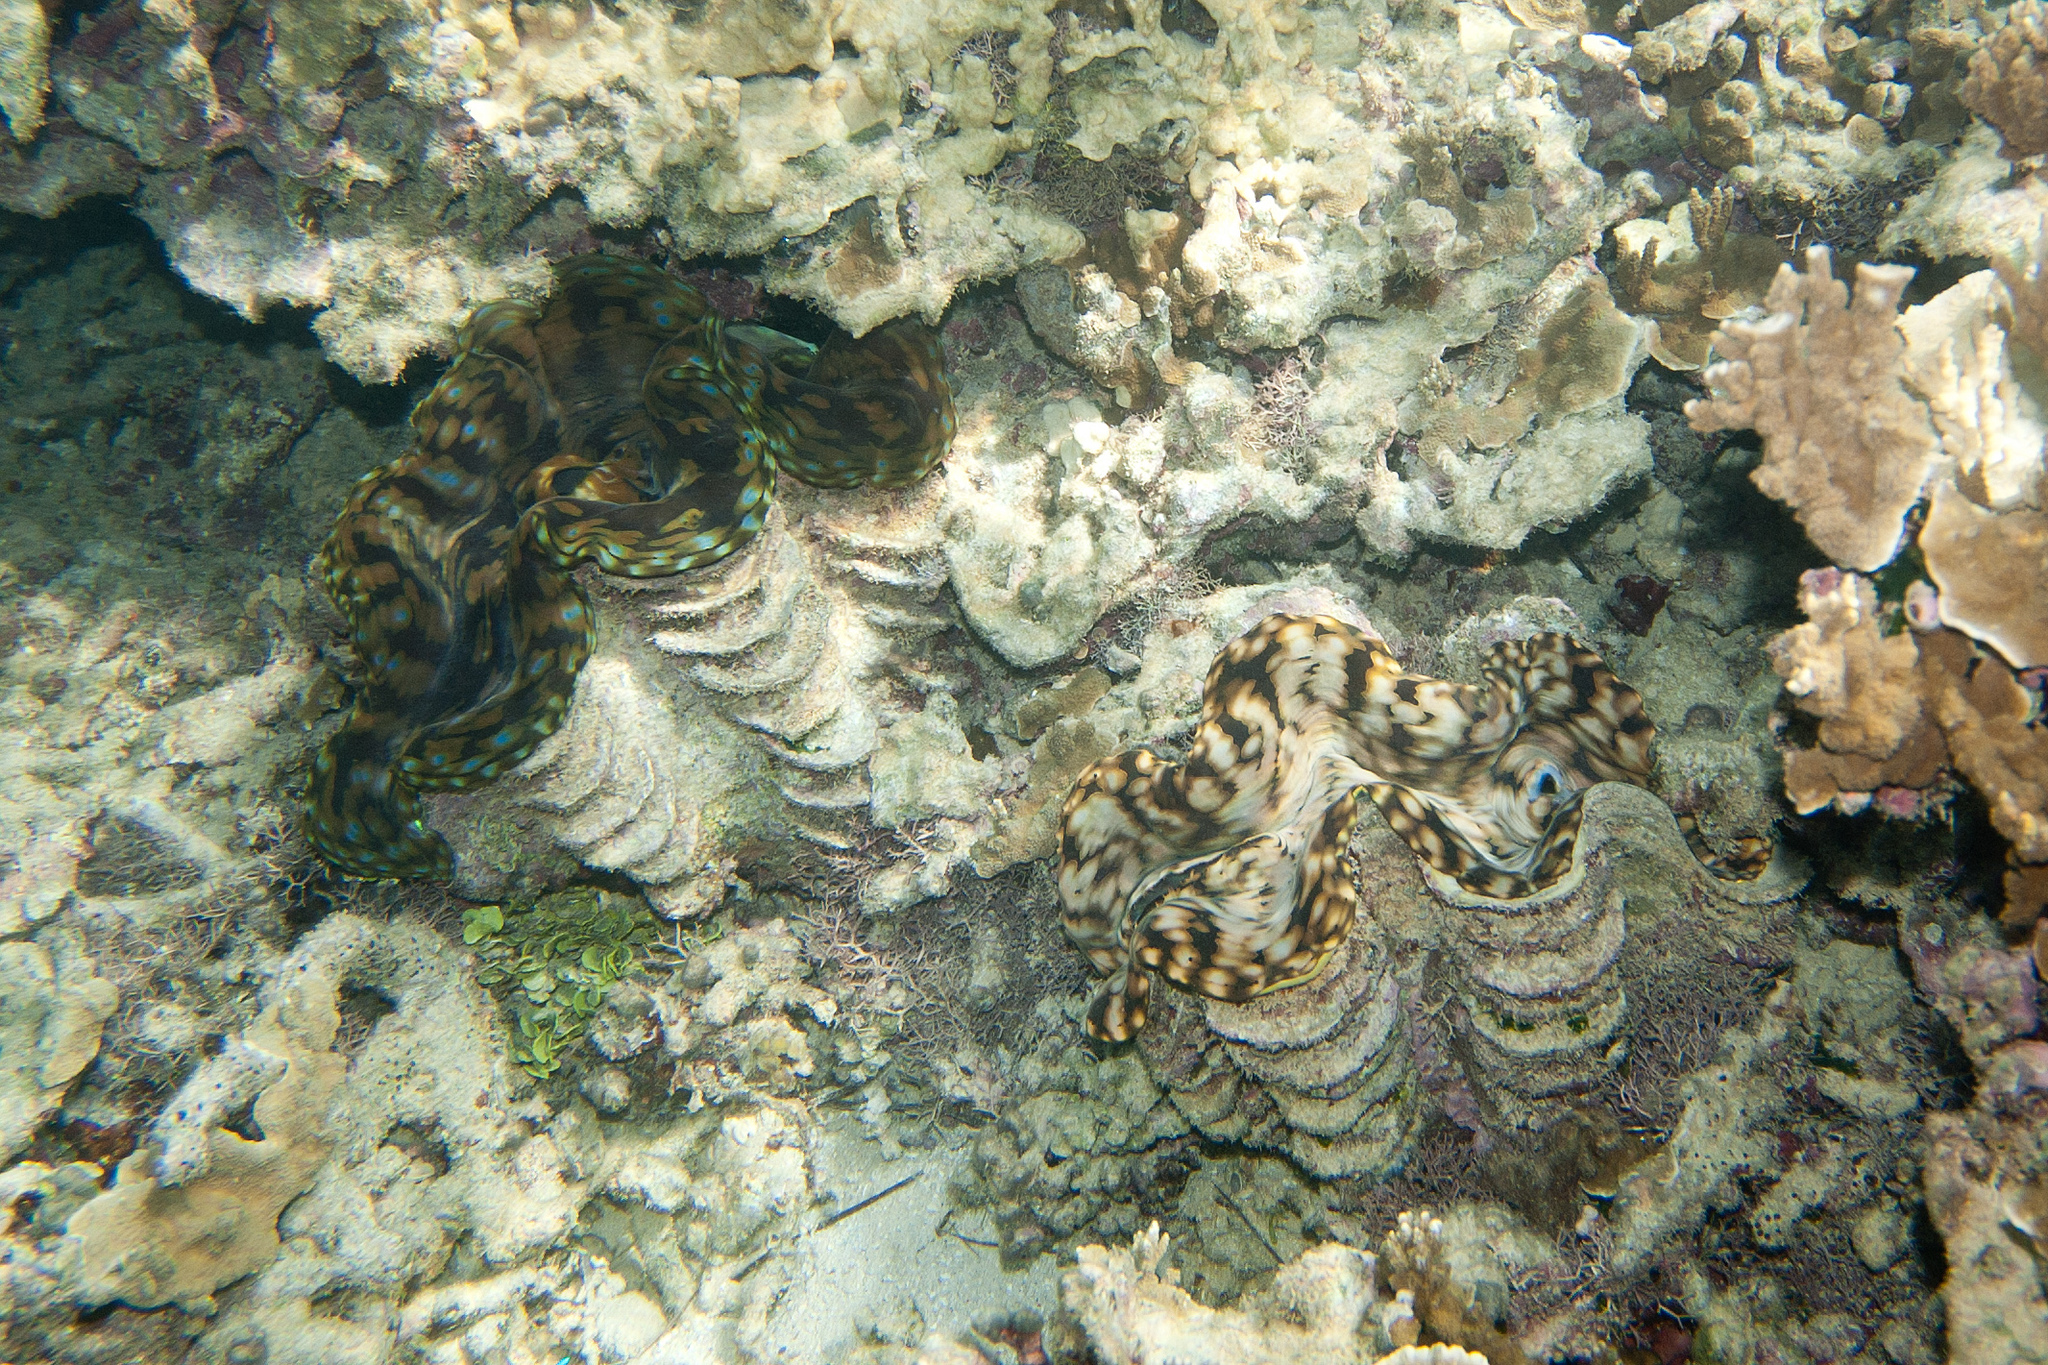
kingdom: Animalia
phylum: Mollusca
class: Bivalvia
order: Cardiida
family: Cardiidae
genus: Tridacna
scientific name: Tridacna squamosa
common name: Fluted clam
